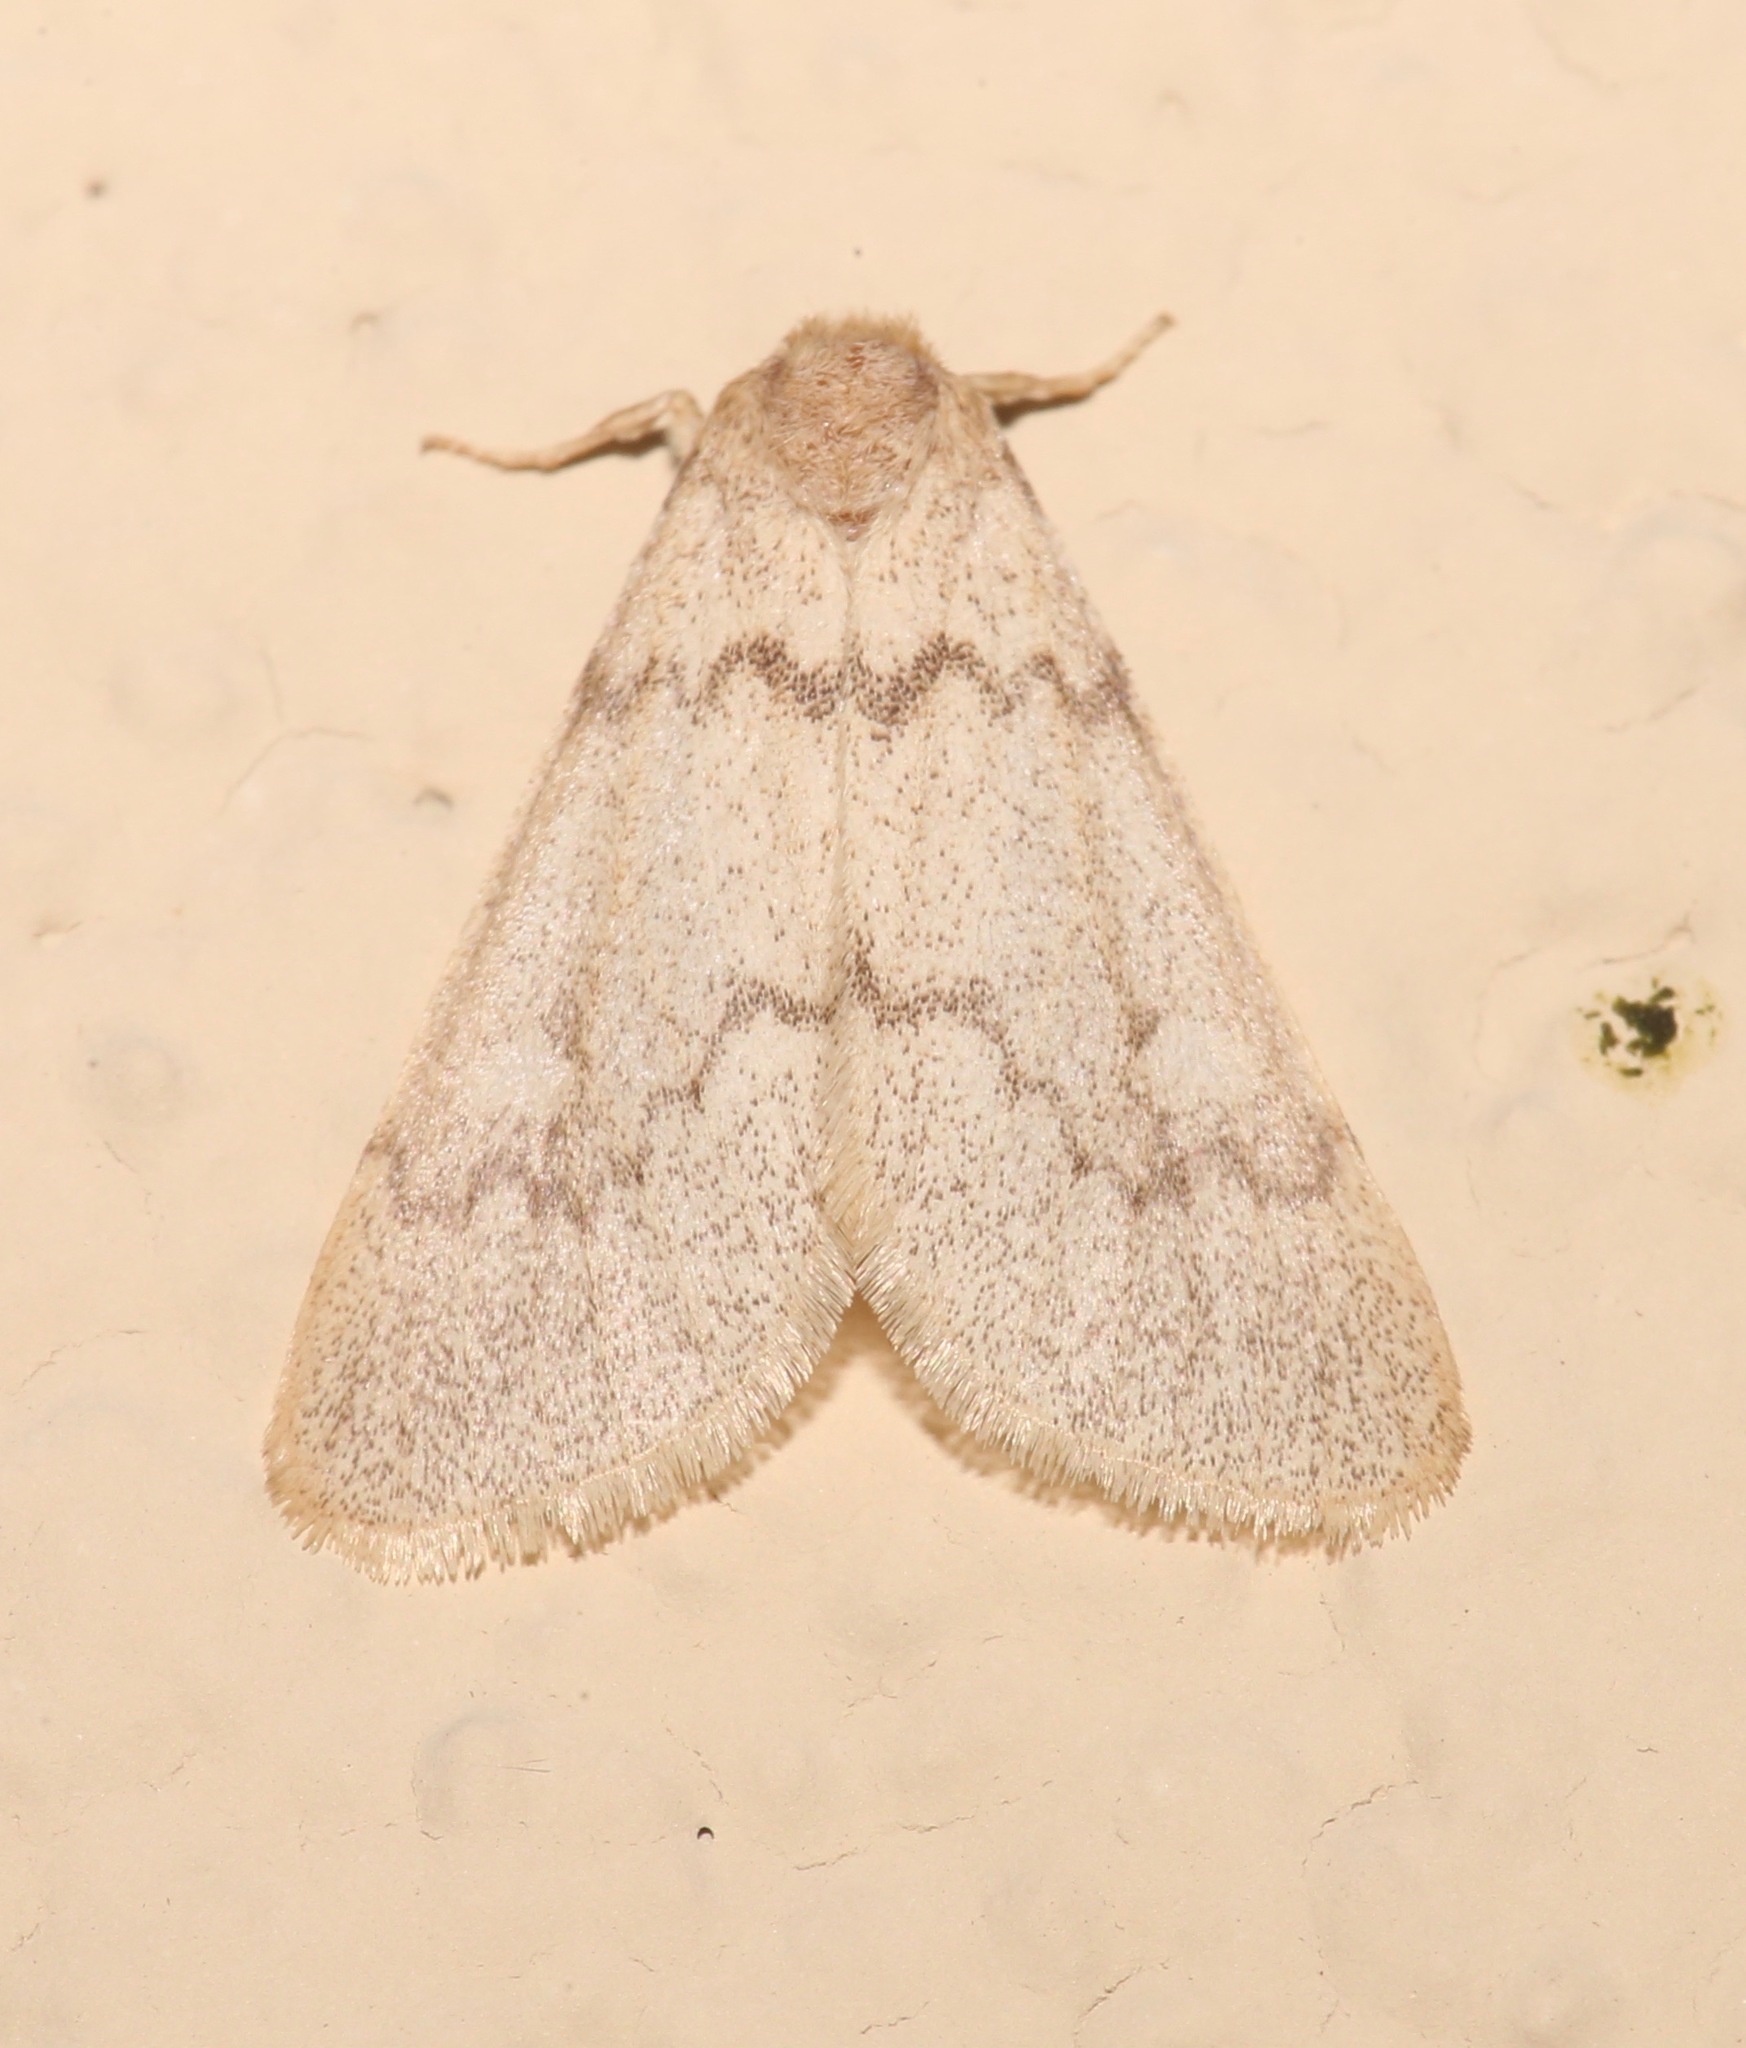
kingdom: Animalia
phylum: Arthropoda
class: Insecta
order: Lepidoptera
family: Noctuidae
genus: Narthecophora
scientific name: Narthecophora pulverea
